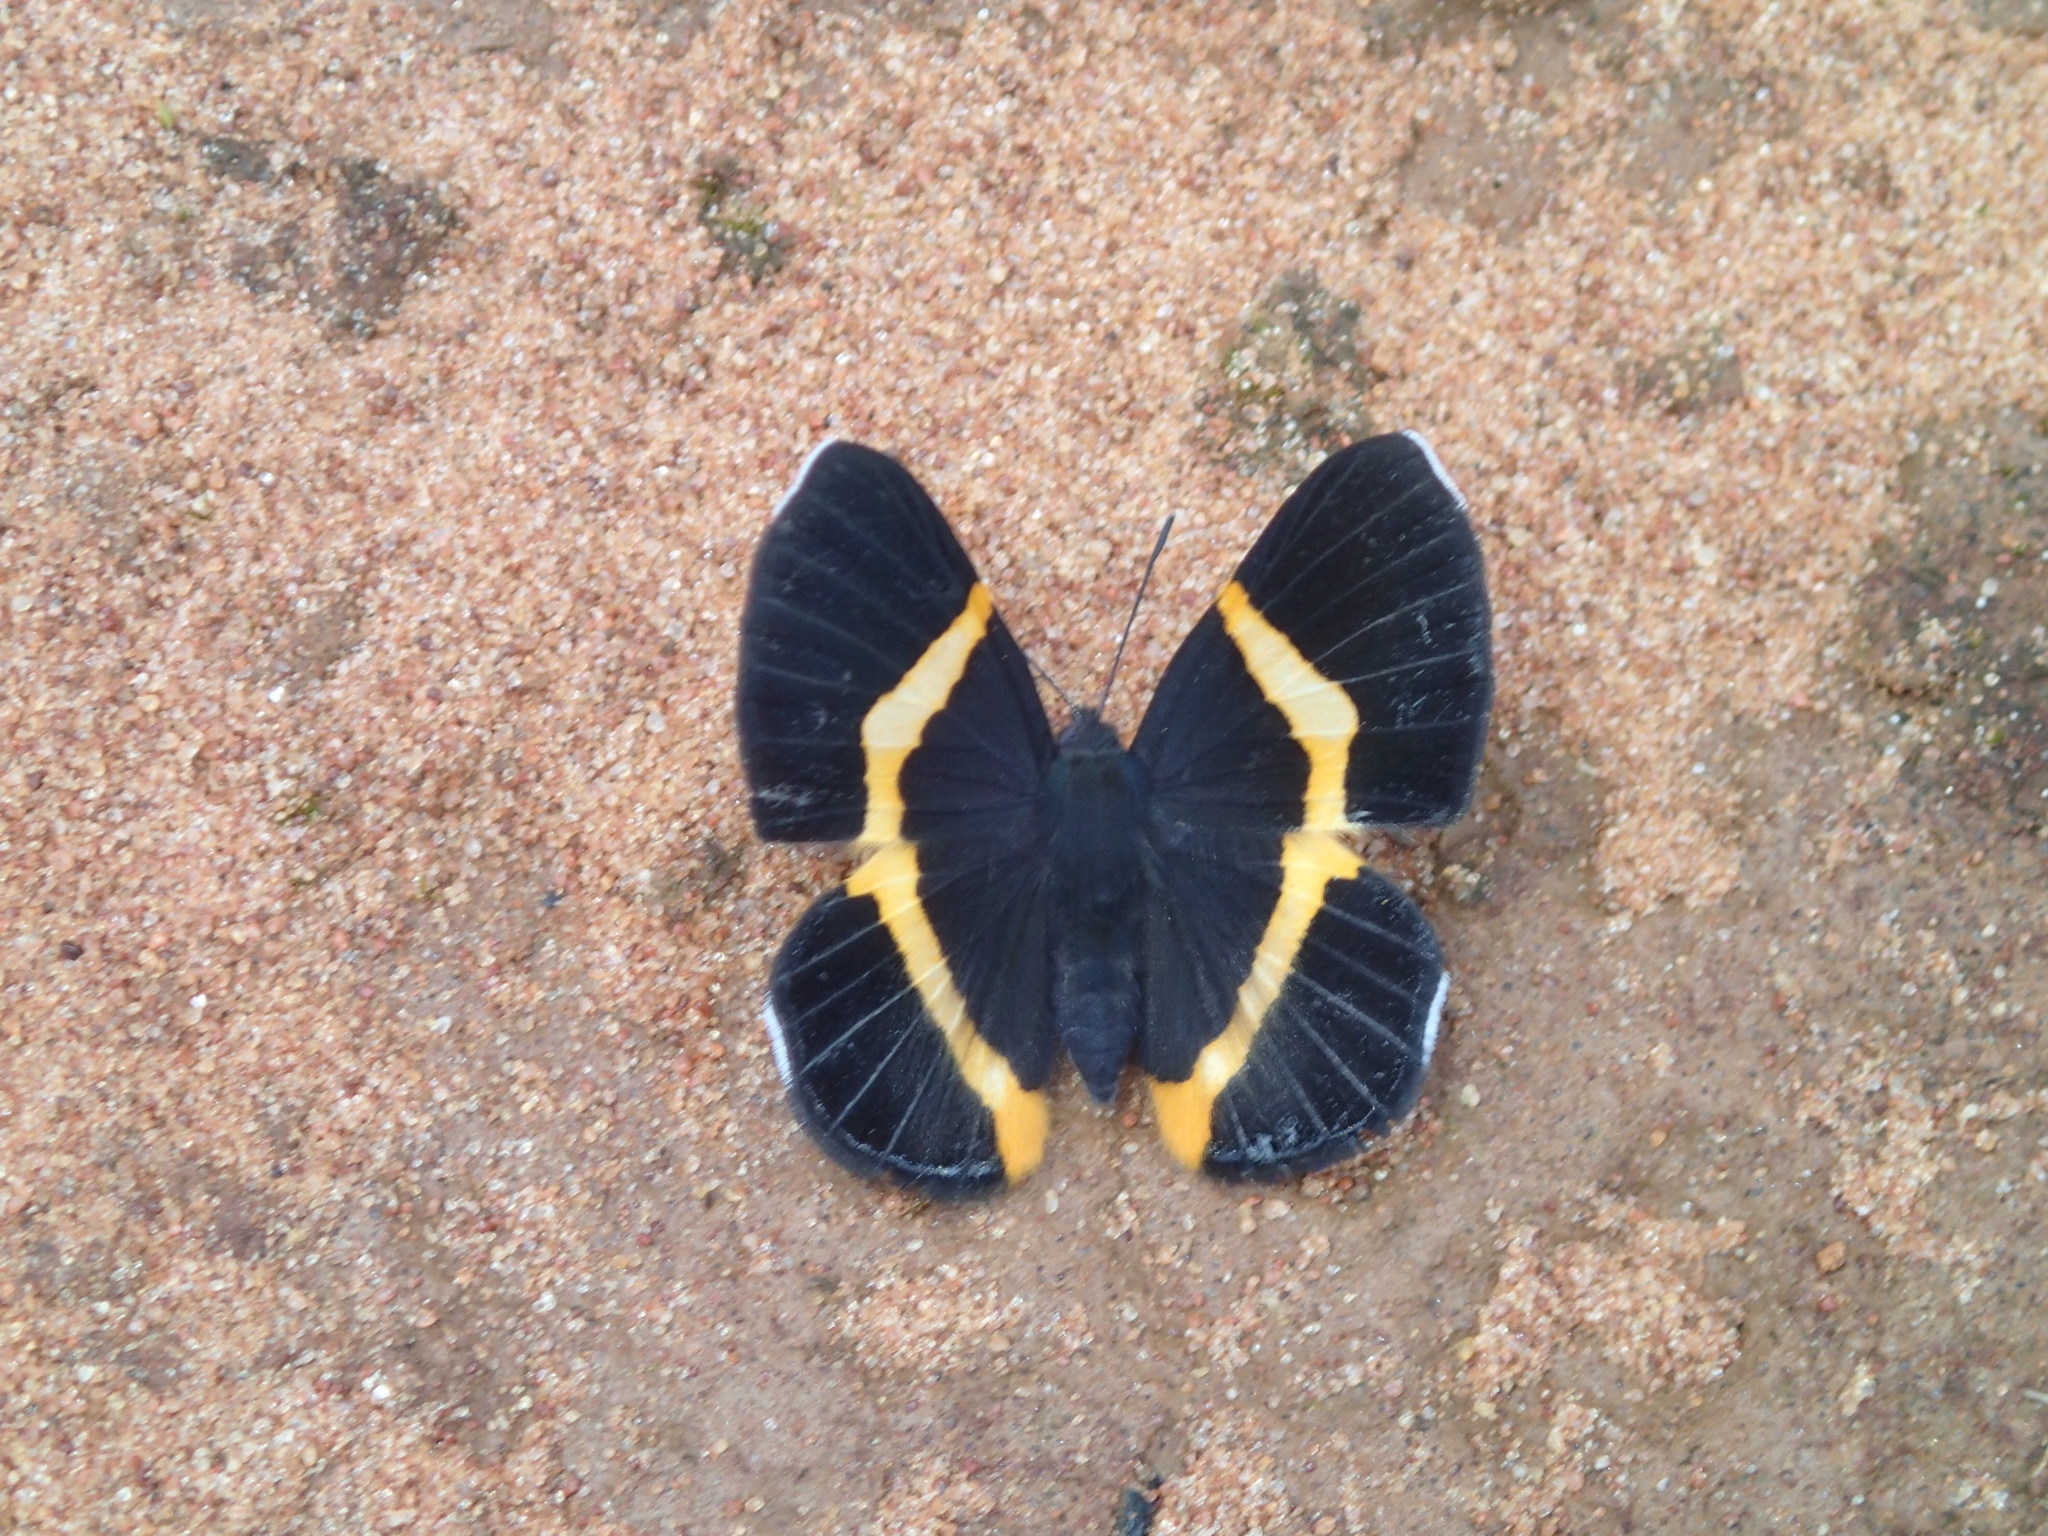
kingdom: Animalia
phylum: Arthropoda
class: Insecta
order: Lepidoptera
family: Riodinidae
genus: Notheme
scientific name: Notheme eumeus
